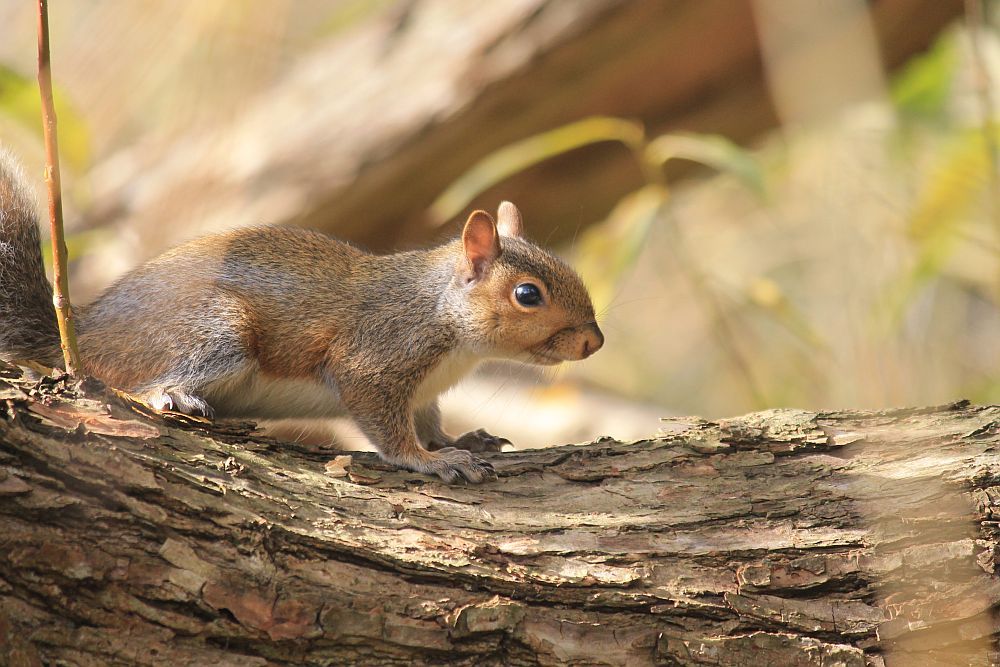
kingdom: Animalia
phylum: Chordata
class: Mammalia
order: Rodentia
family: Sciuridae
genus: Sciurus
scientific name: Sciurus carolinensis
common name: Eastern gray squirrel
